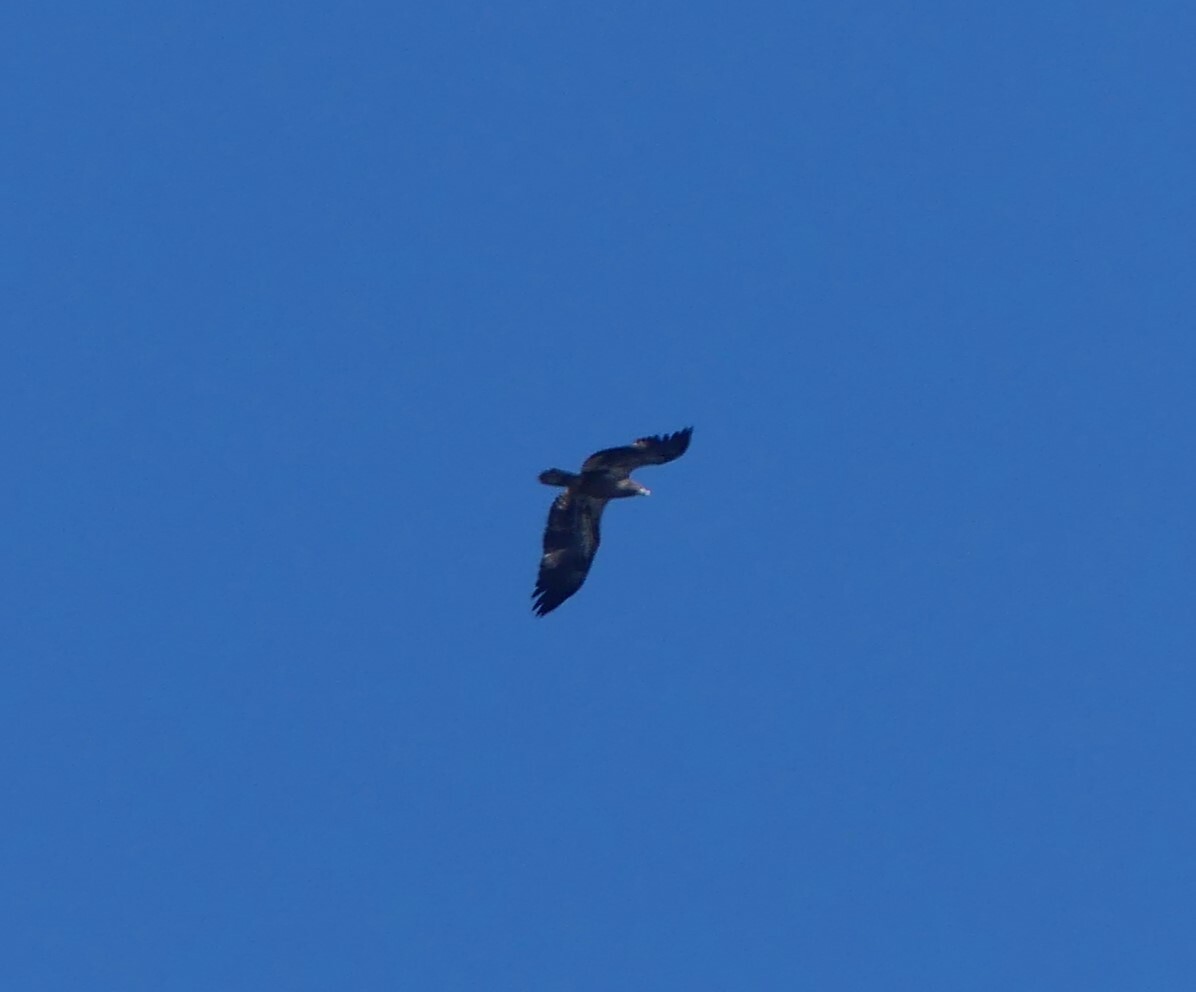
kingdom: Animalia
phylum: Chordata
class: Aves
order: Accipitriformes
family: Accipitridae
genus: Haliaeetus
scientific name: Haliaeetus leucocephalus
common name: Bald eagle
